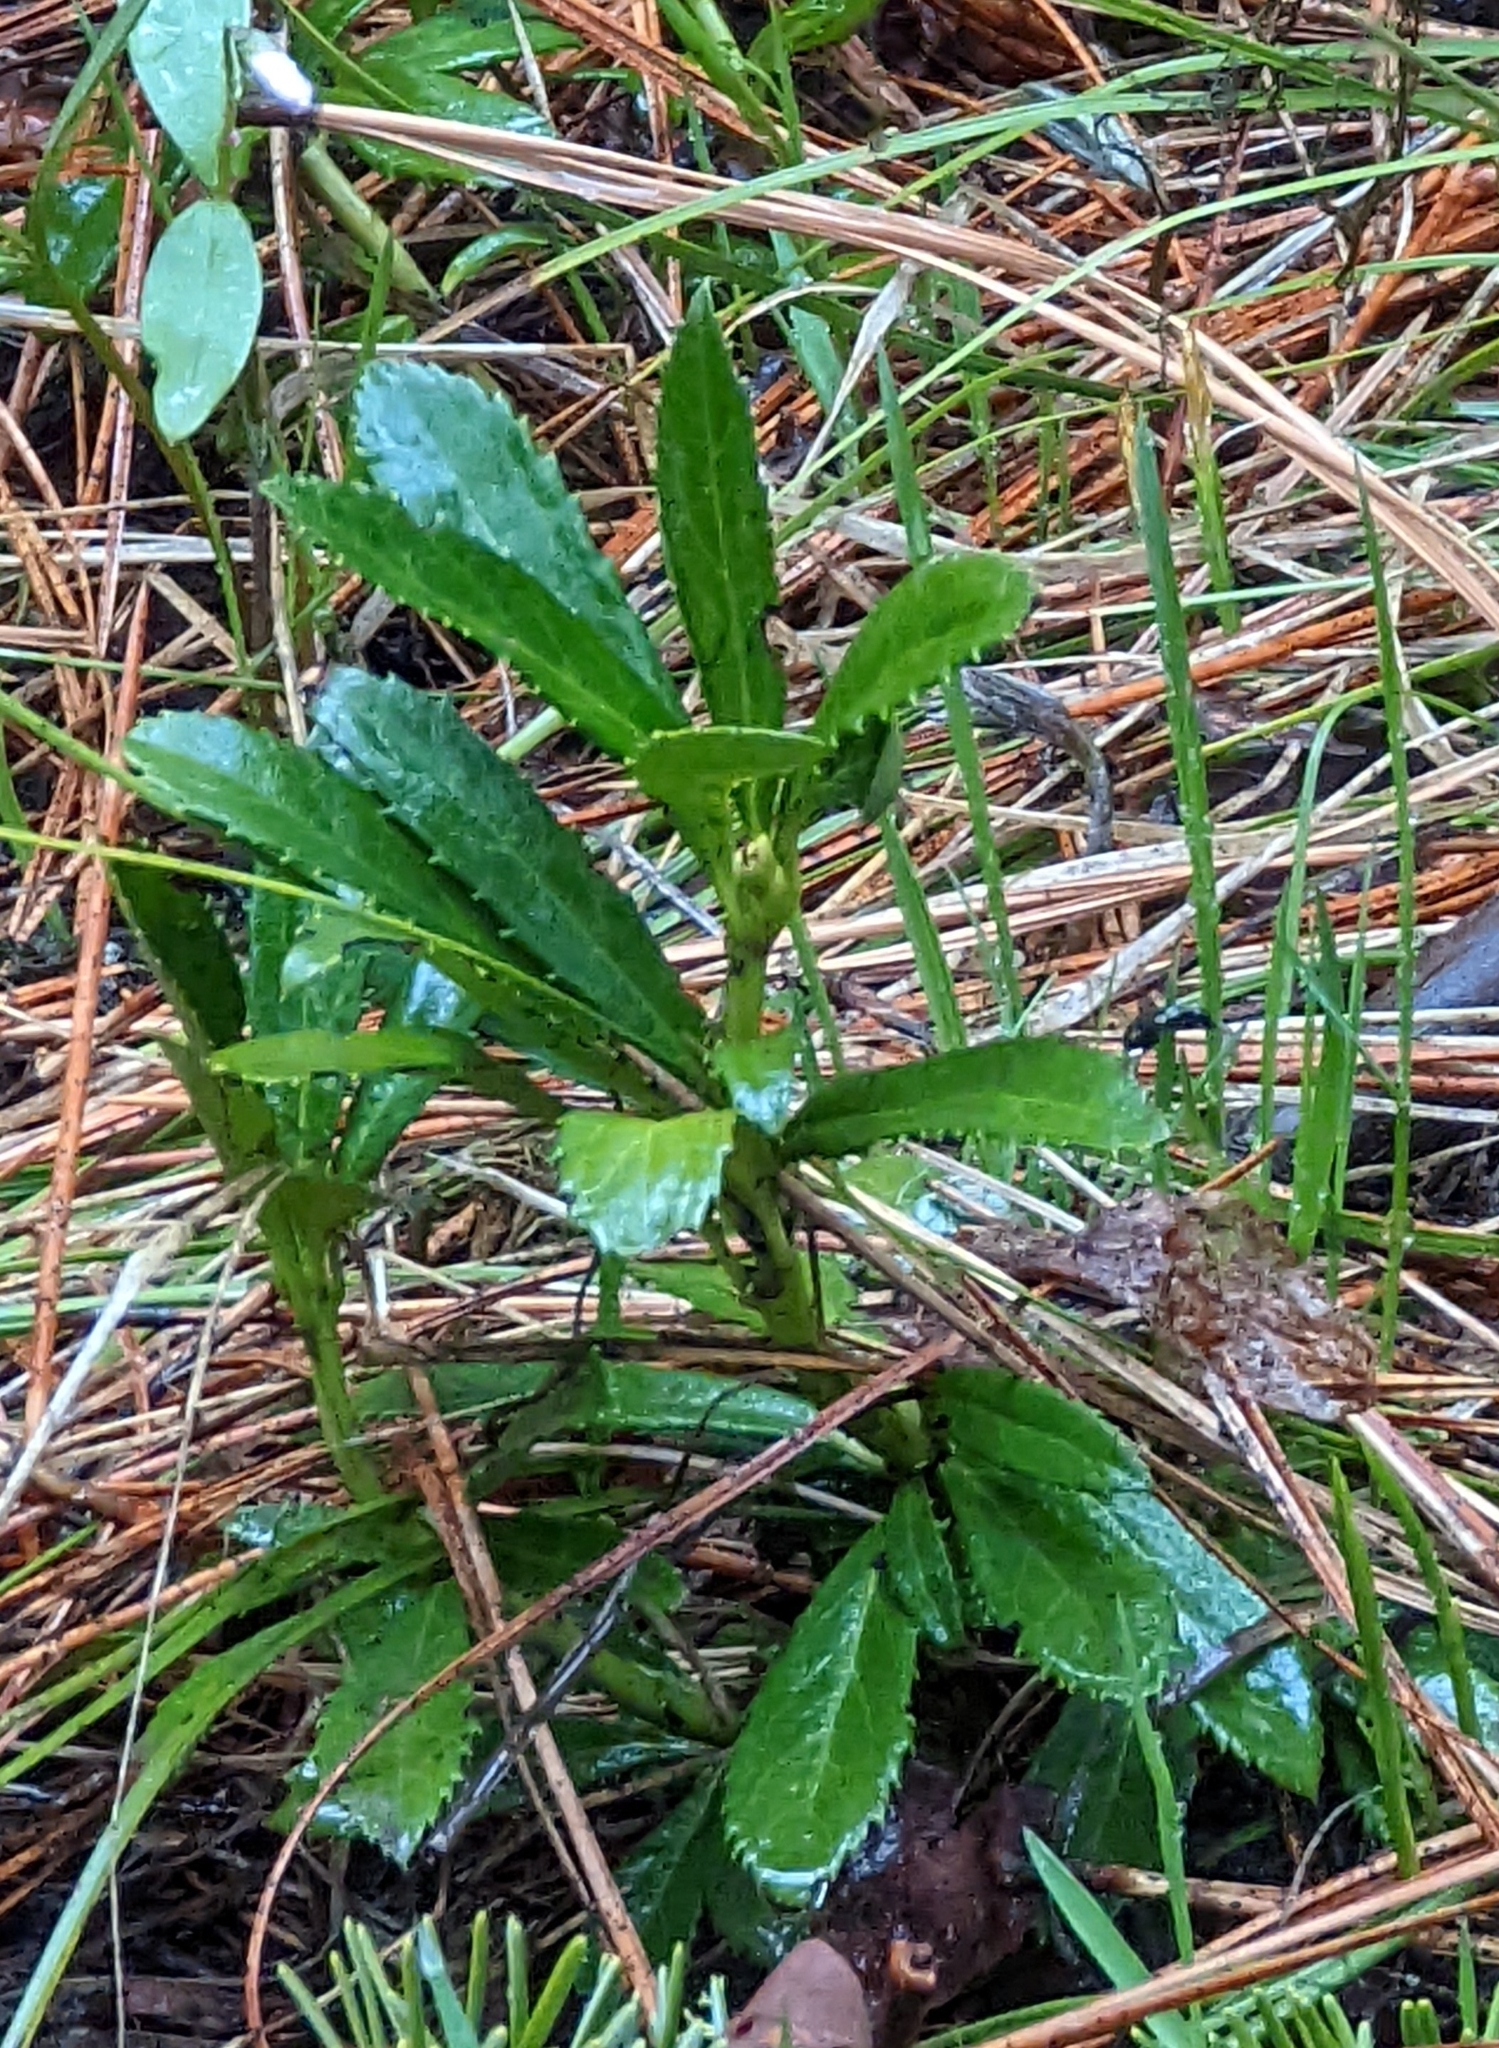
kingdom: Plantae
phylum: Tracheophyta
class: Magnoliopsida
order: Ericales
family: Ericaceae
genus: Chimaphila
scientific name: Chimaphila umbellata
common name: Pipsissewa
